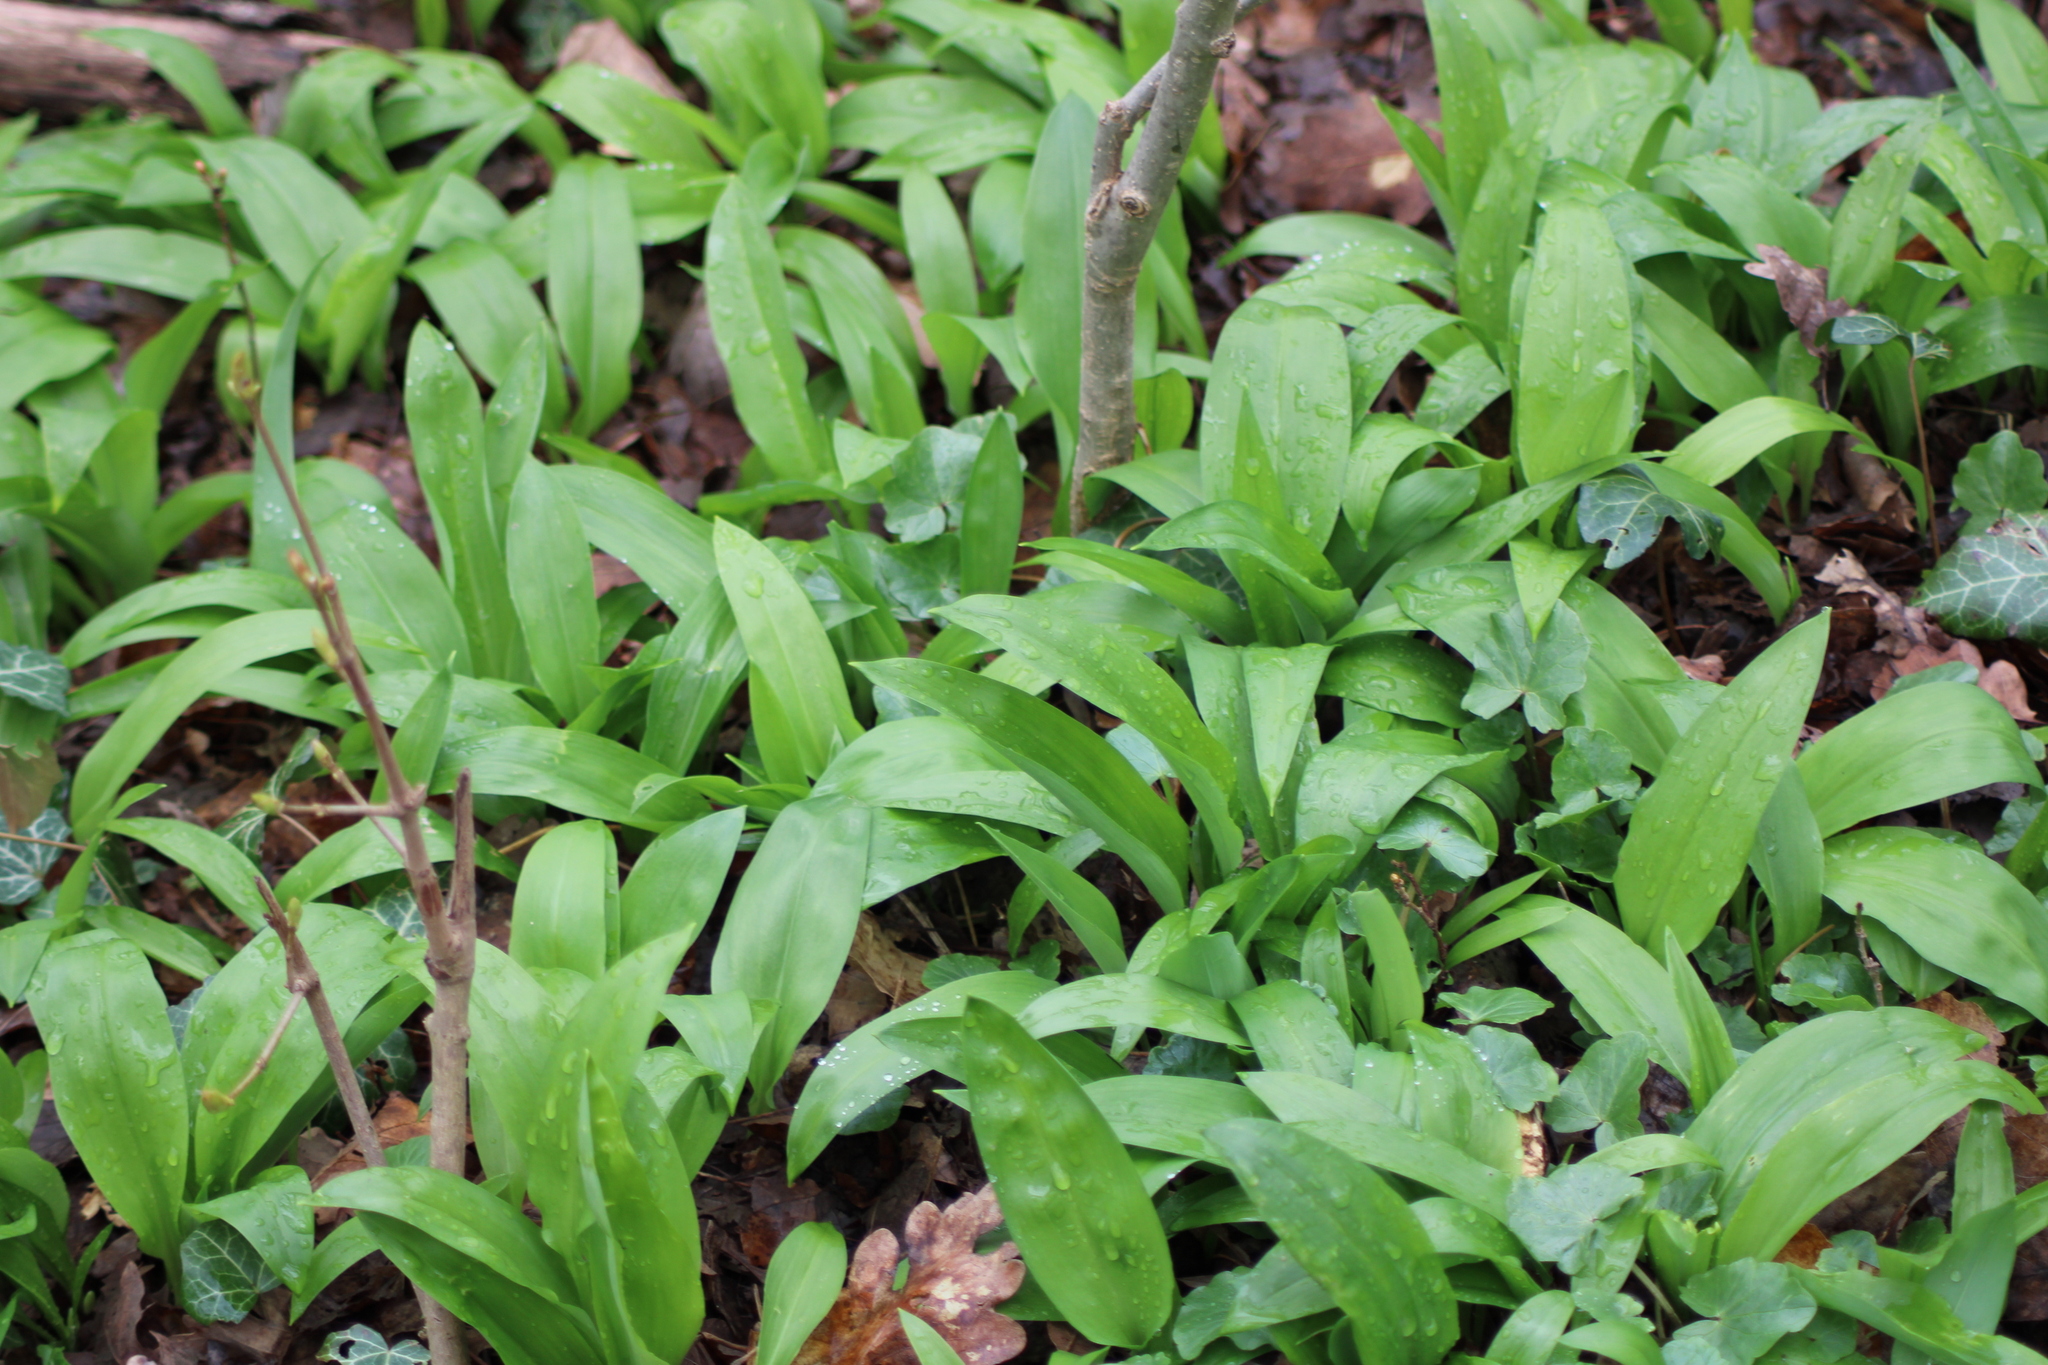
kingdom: Plantae
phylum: Tracheophyta
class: Liliopsida
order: Asparagales
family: Amaryllidaceae
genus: Allium
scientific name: Allium ursinum
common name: Ramsons
